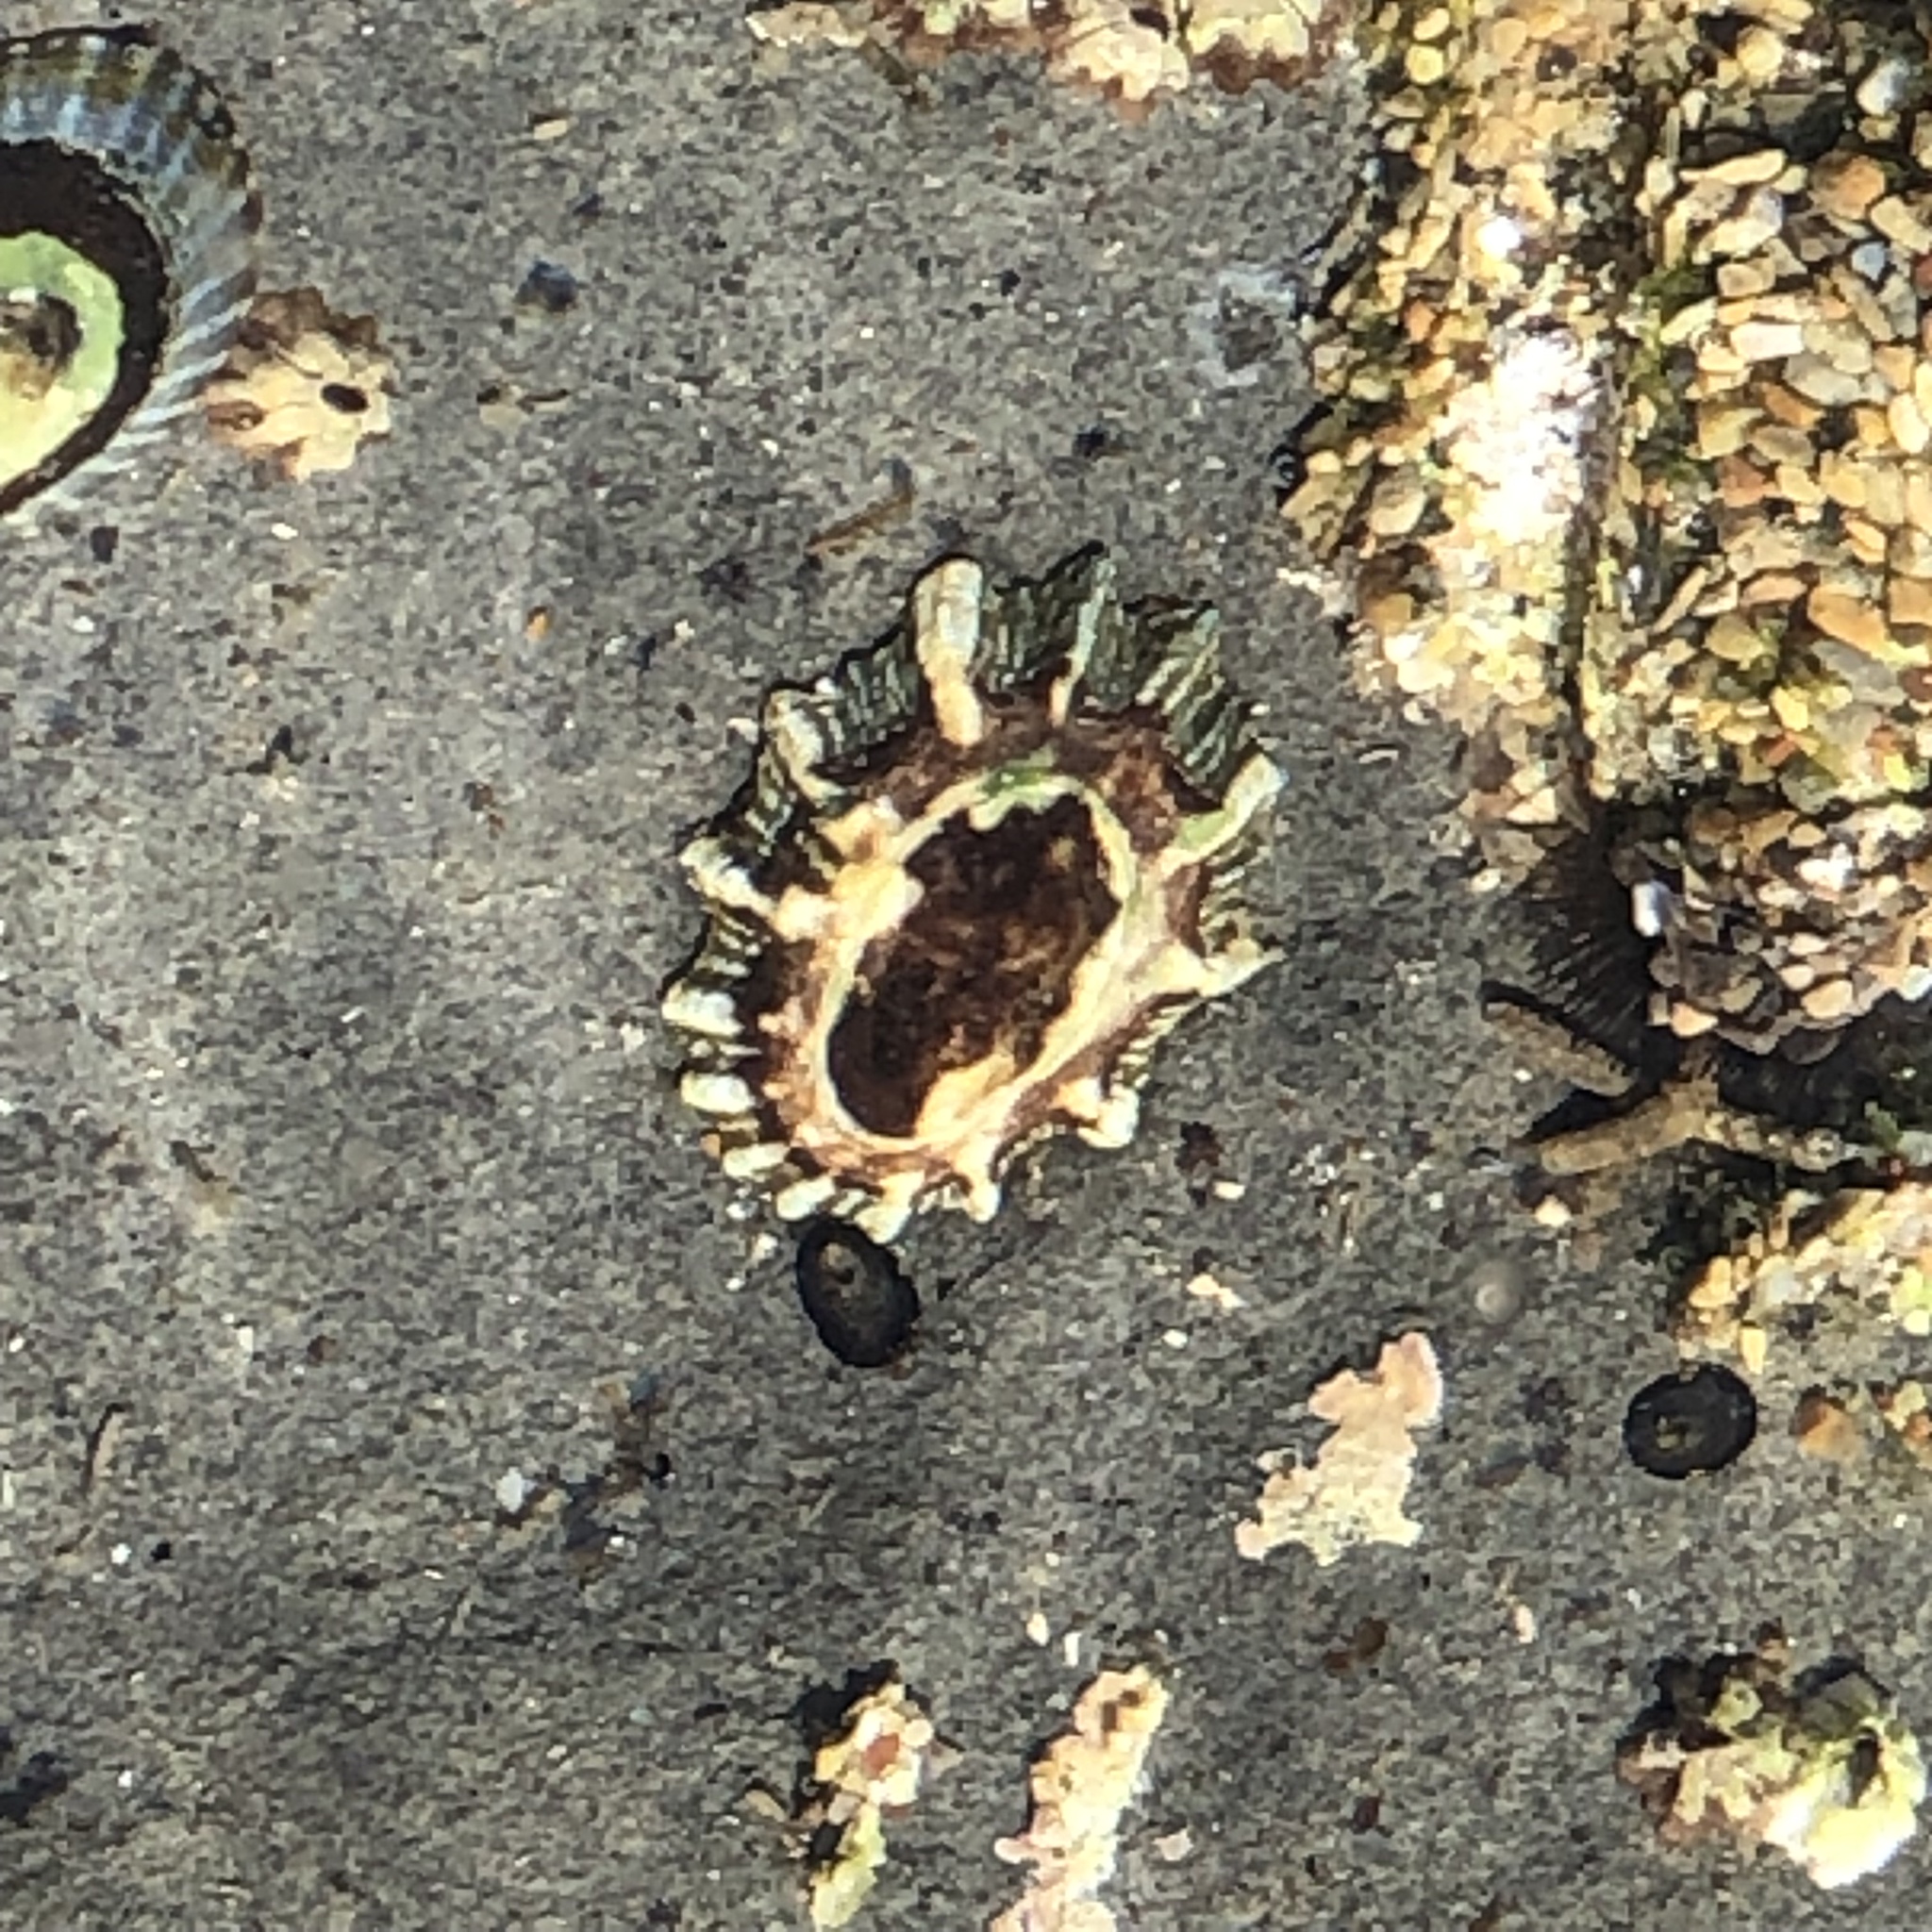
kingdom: Animalia
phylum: Mollusca
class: Gastropoda
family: Lottiidae
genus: Lottia
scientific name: Lottia scabra
